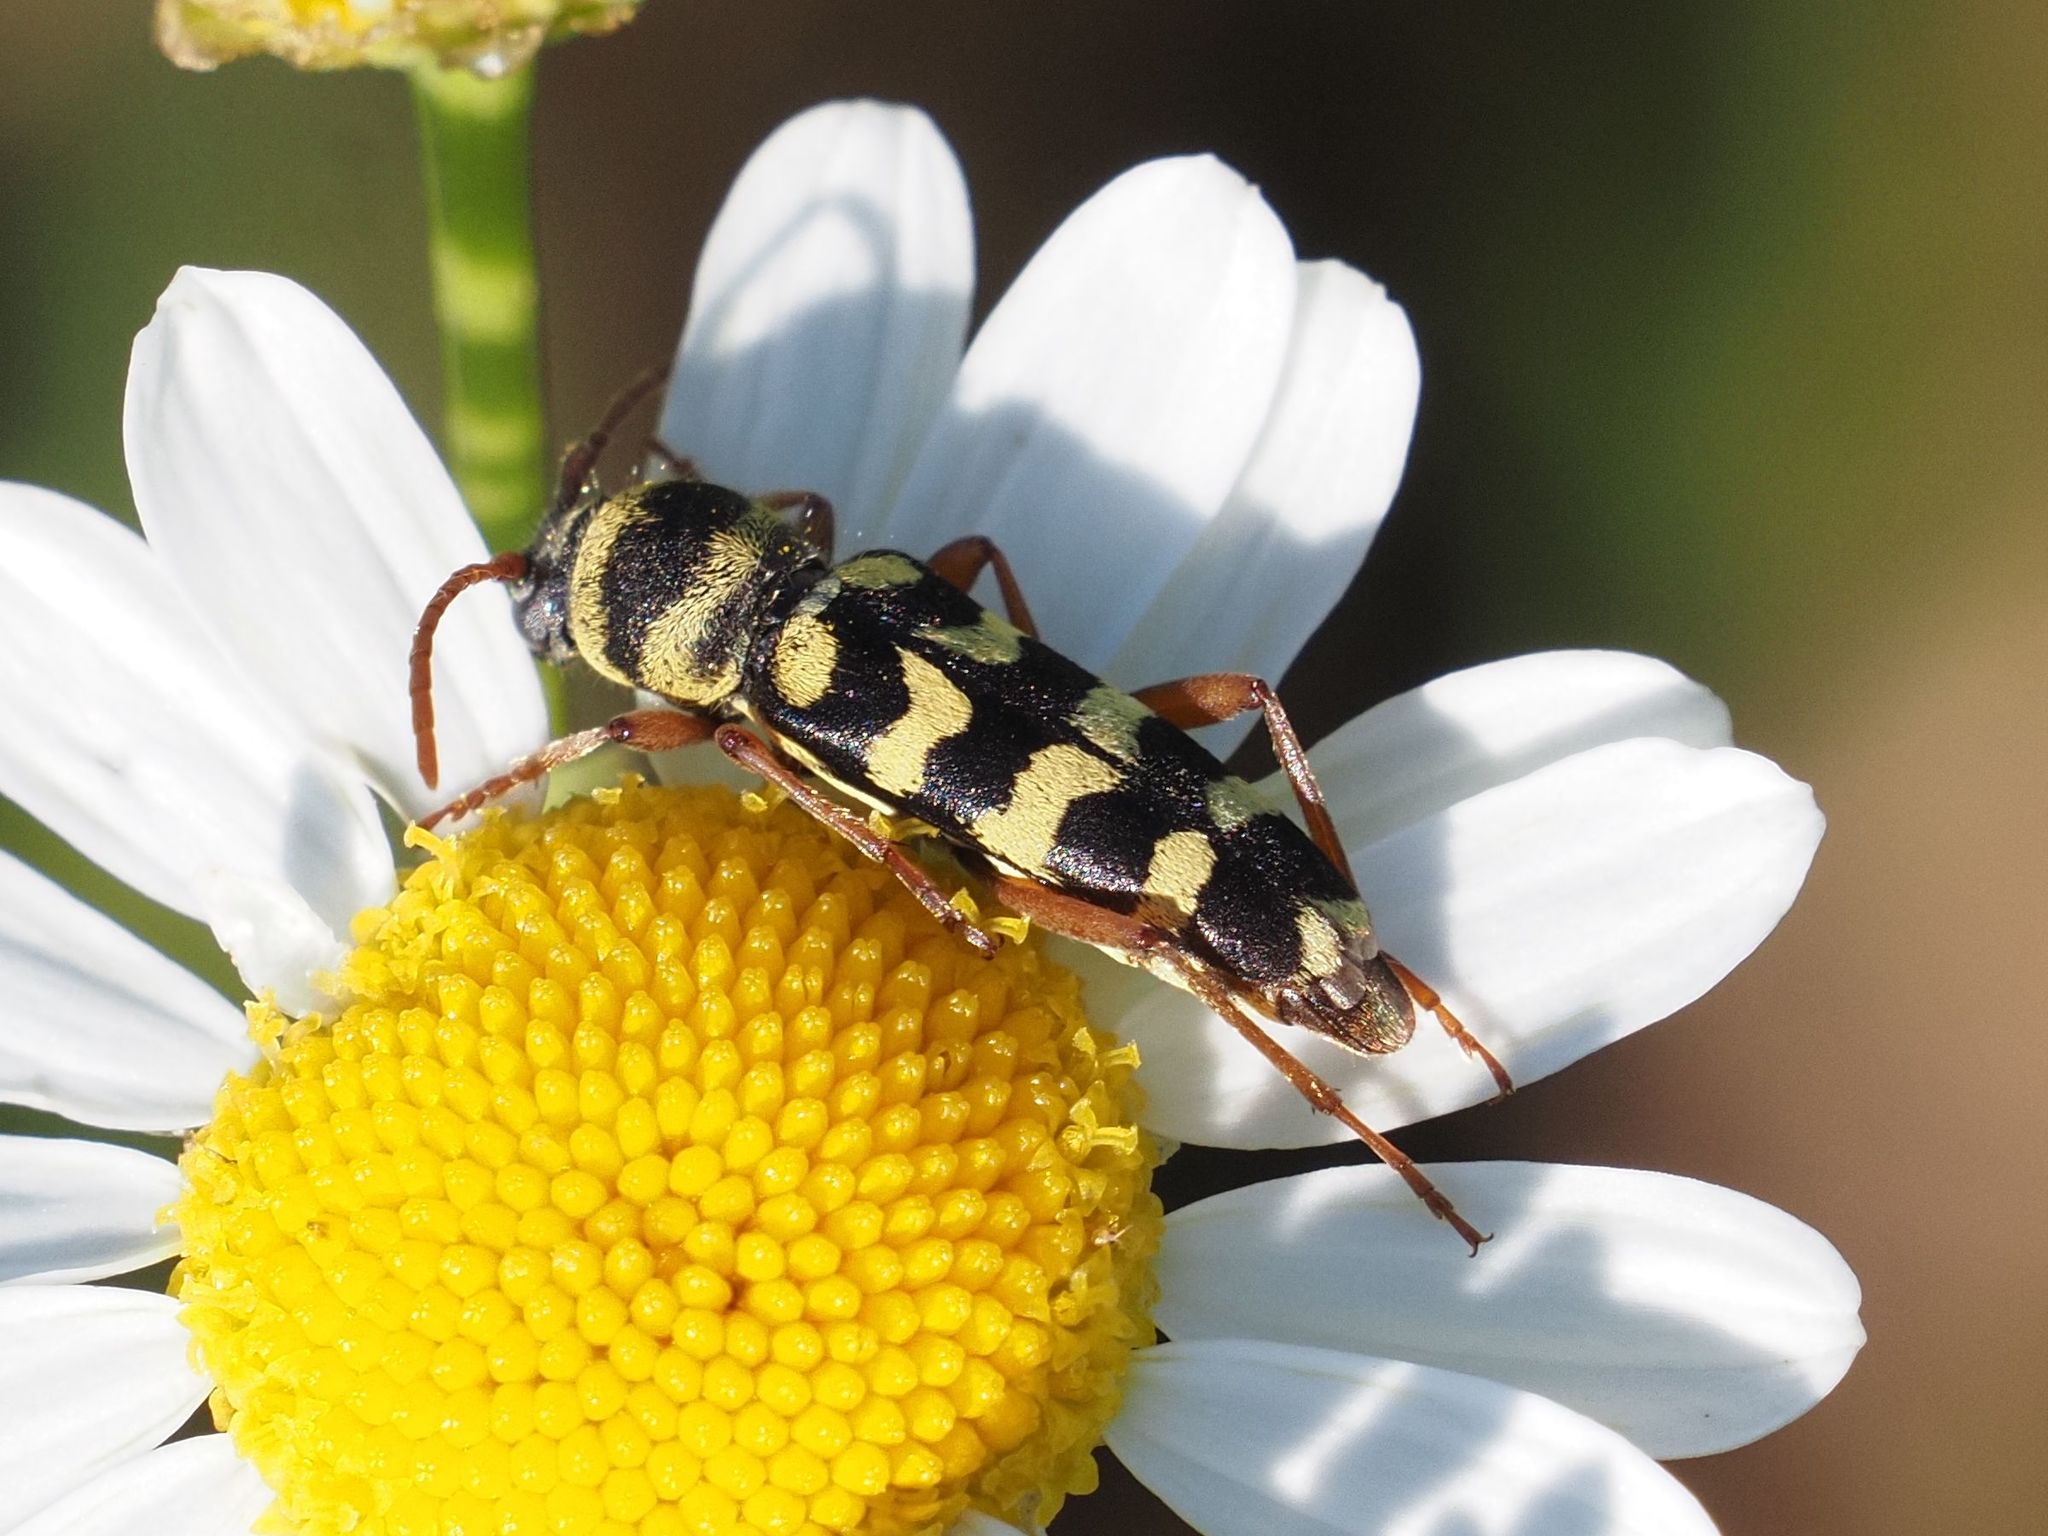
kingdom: Animalia
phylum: Arthropoda
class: Insecta
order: Coleoptera
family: Cerambycidae
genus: Plagionotus
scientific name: Plagionotus floralis
